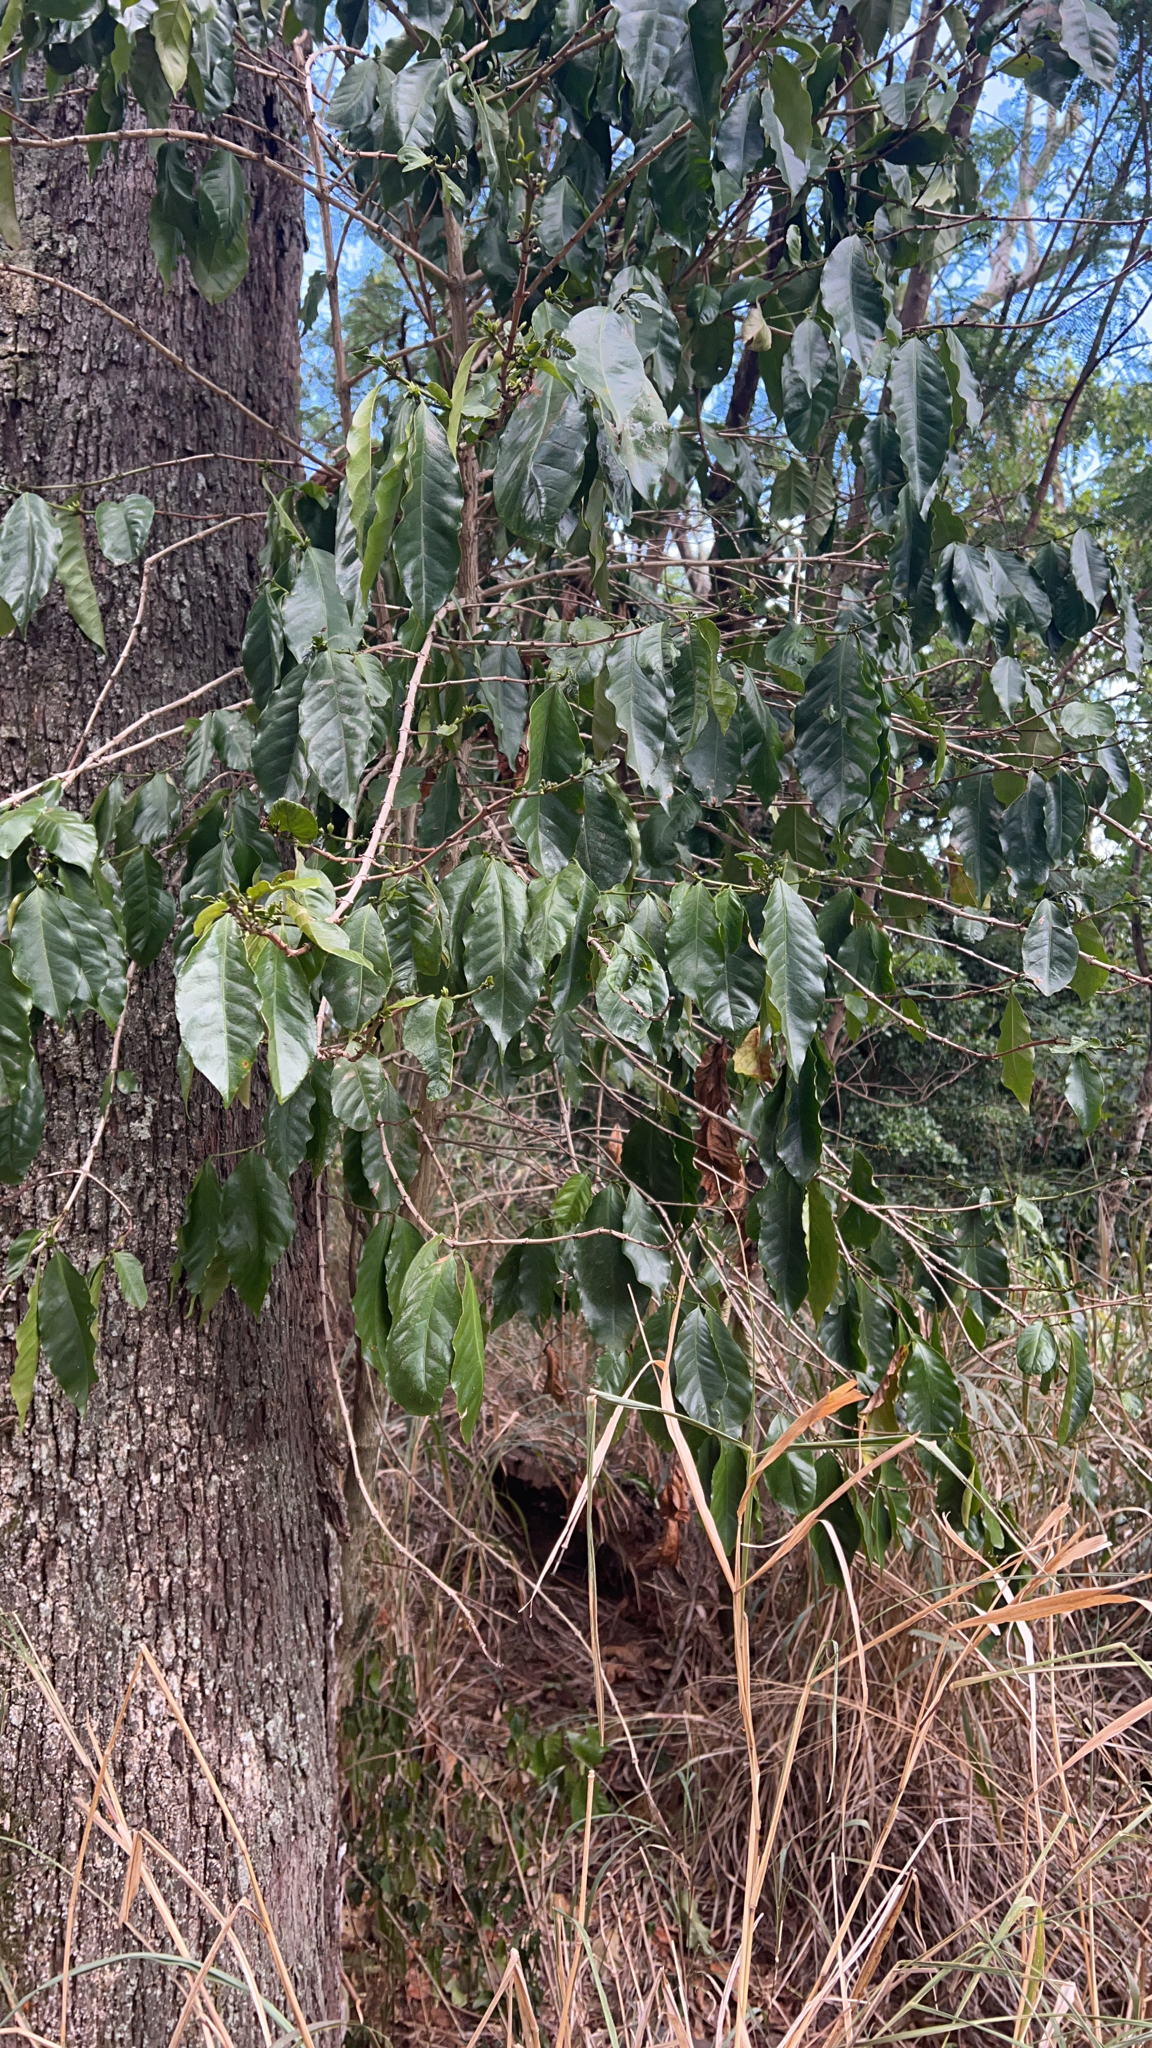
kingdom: Plantae
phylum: Tracheophyta
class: Magnoliopsida
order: Gentianales
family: Rubiaceae
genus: Coffea
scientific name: Coffea arabica
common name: Coffee
